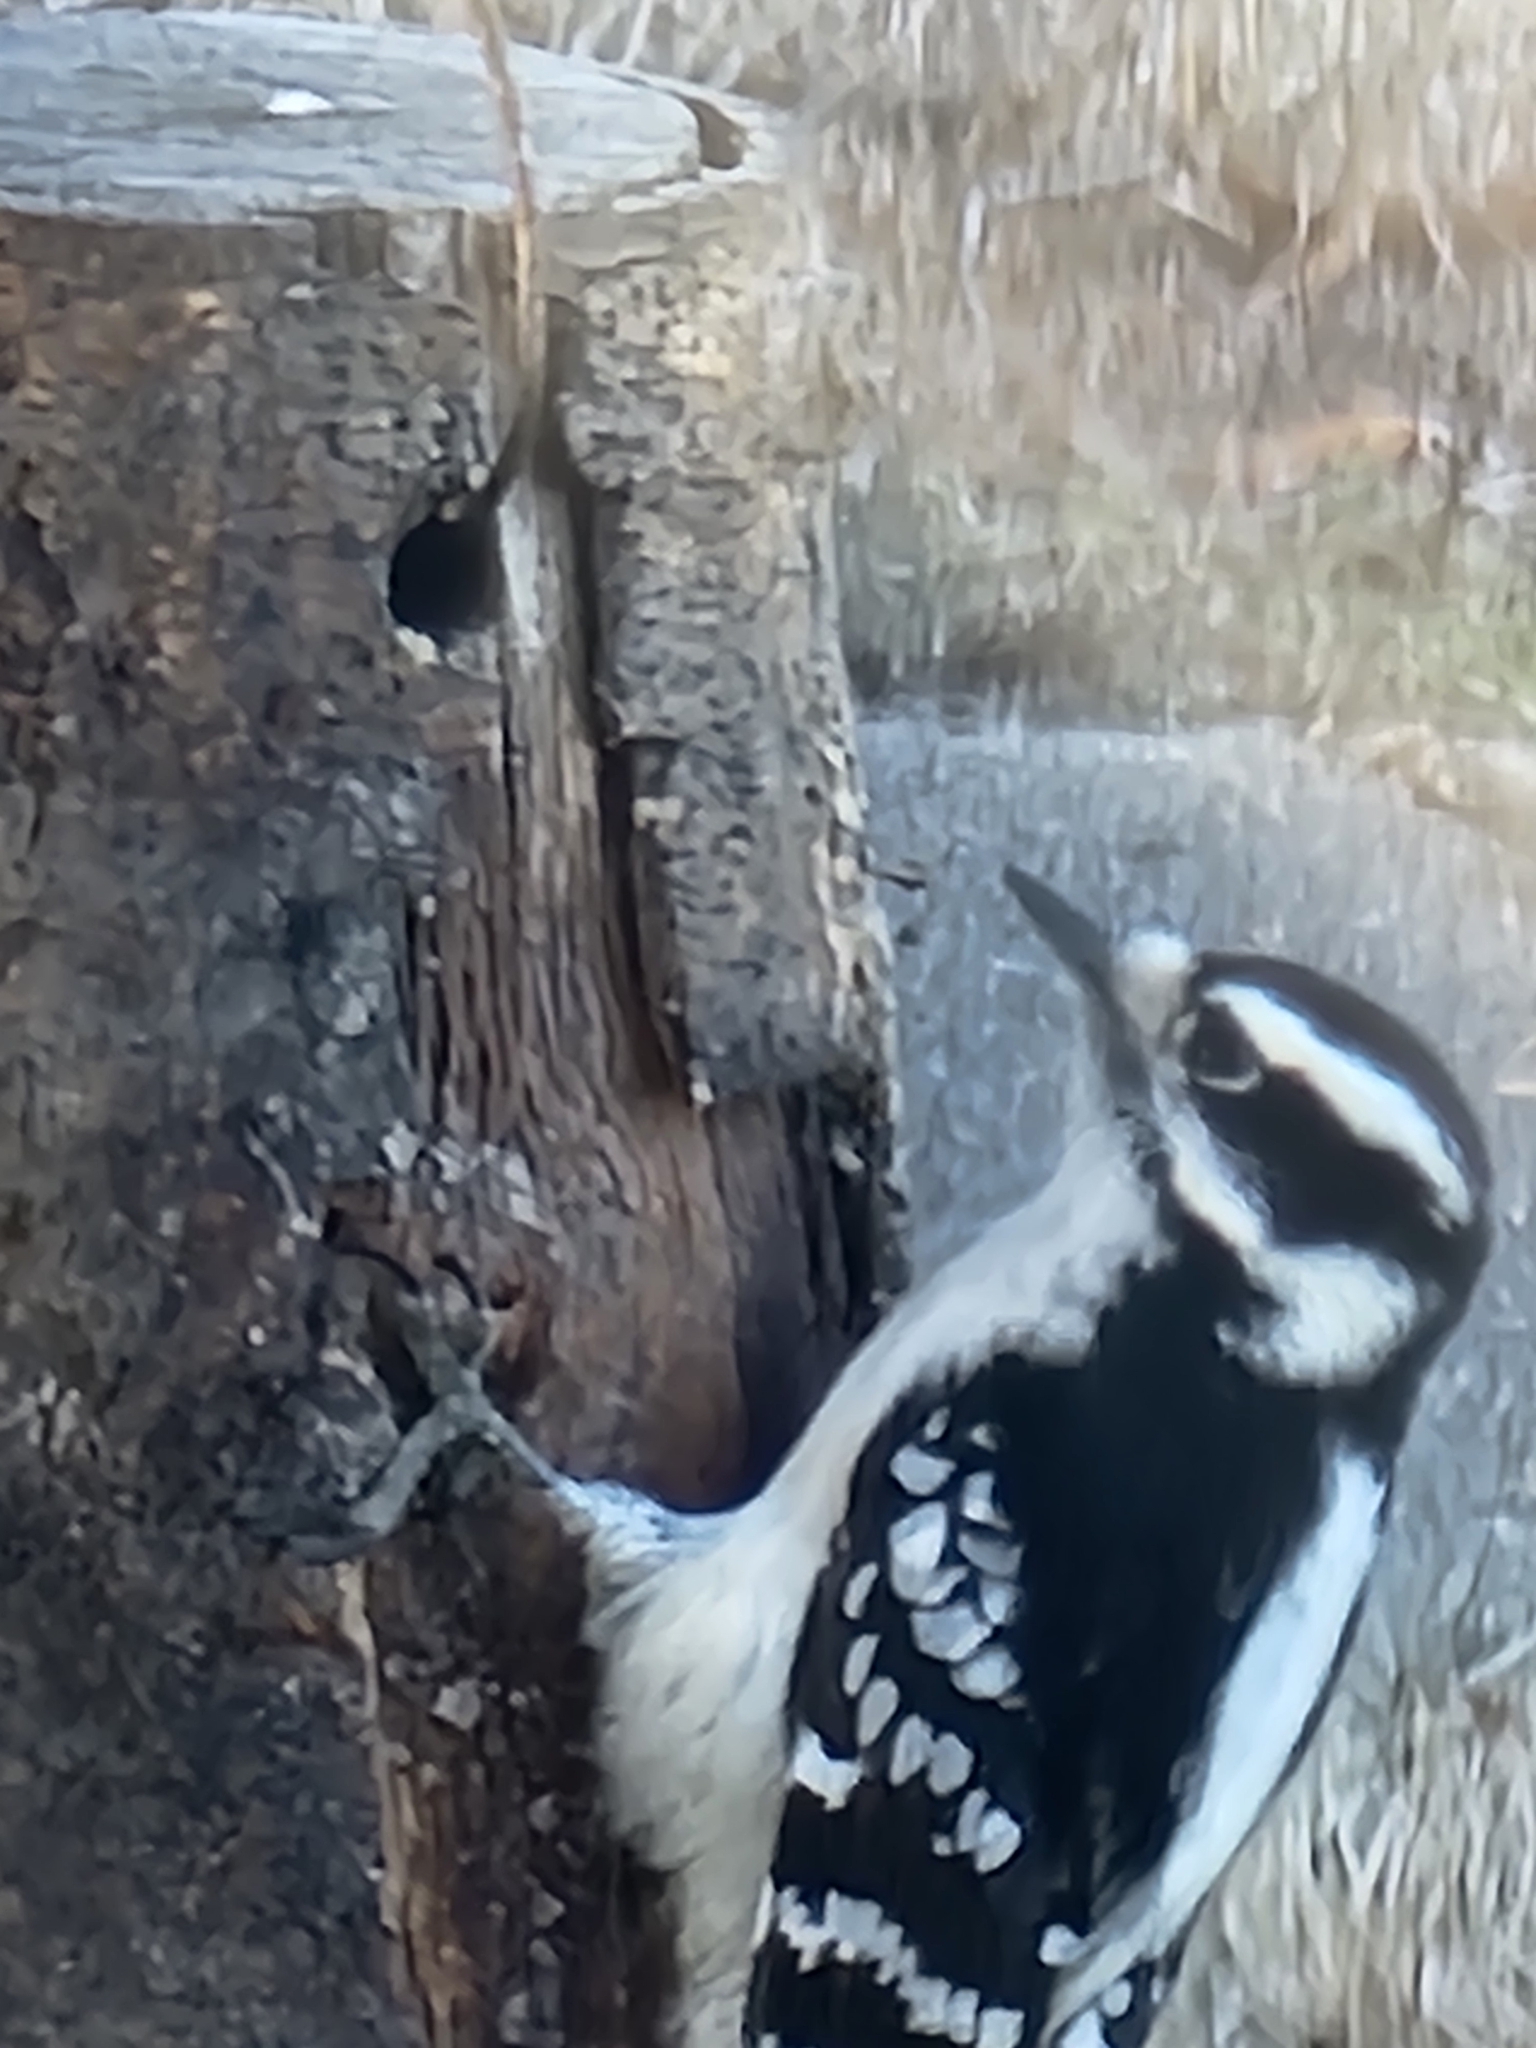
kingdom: Animalia
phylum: Chordata
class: Aves
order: Piciformes
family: Picidae
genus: Dryobates
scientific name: Dryobates pubescens
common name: Downy woodpecker
